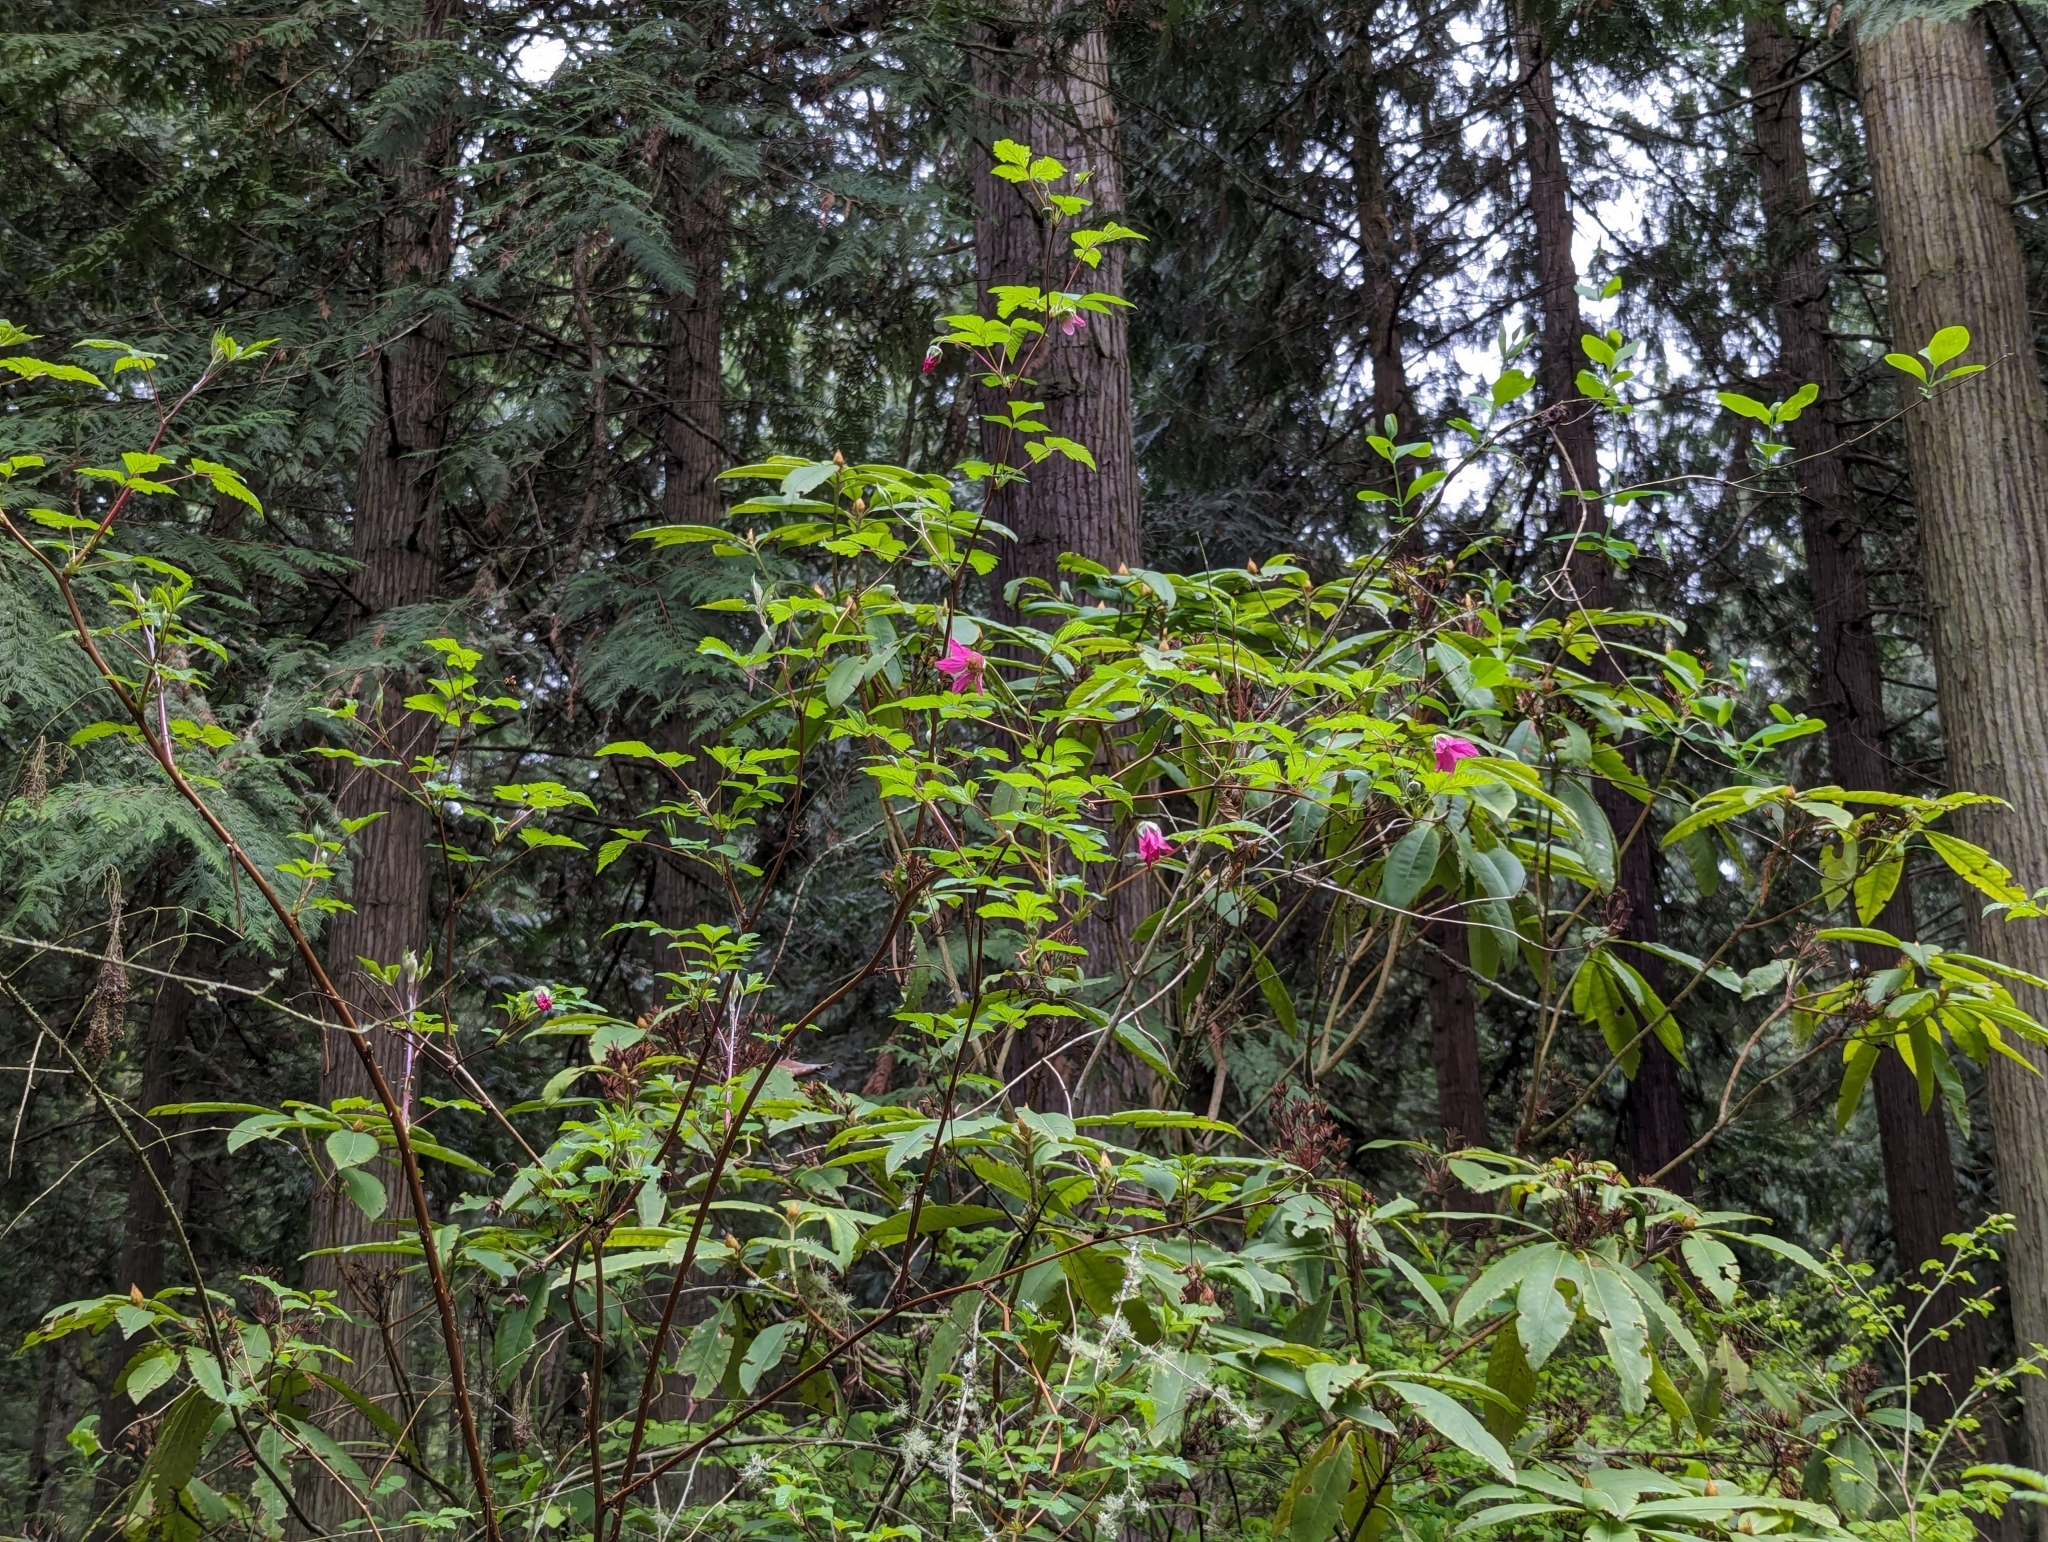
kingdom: Plantae
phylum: Tracheophyta
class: Magnoliopsida
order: Rosales
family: Rosaceae
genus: Rubus
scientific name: Rubus spectabilis
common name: Salmonberry
